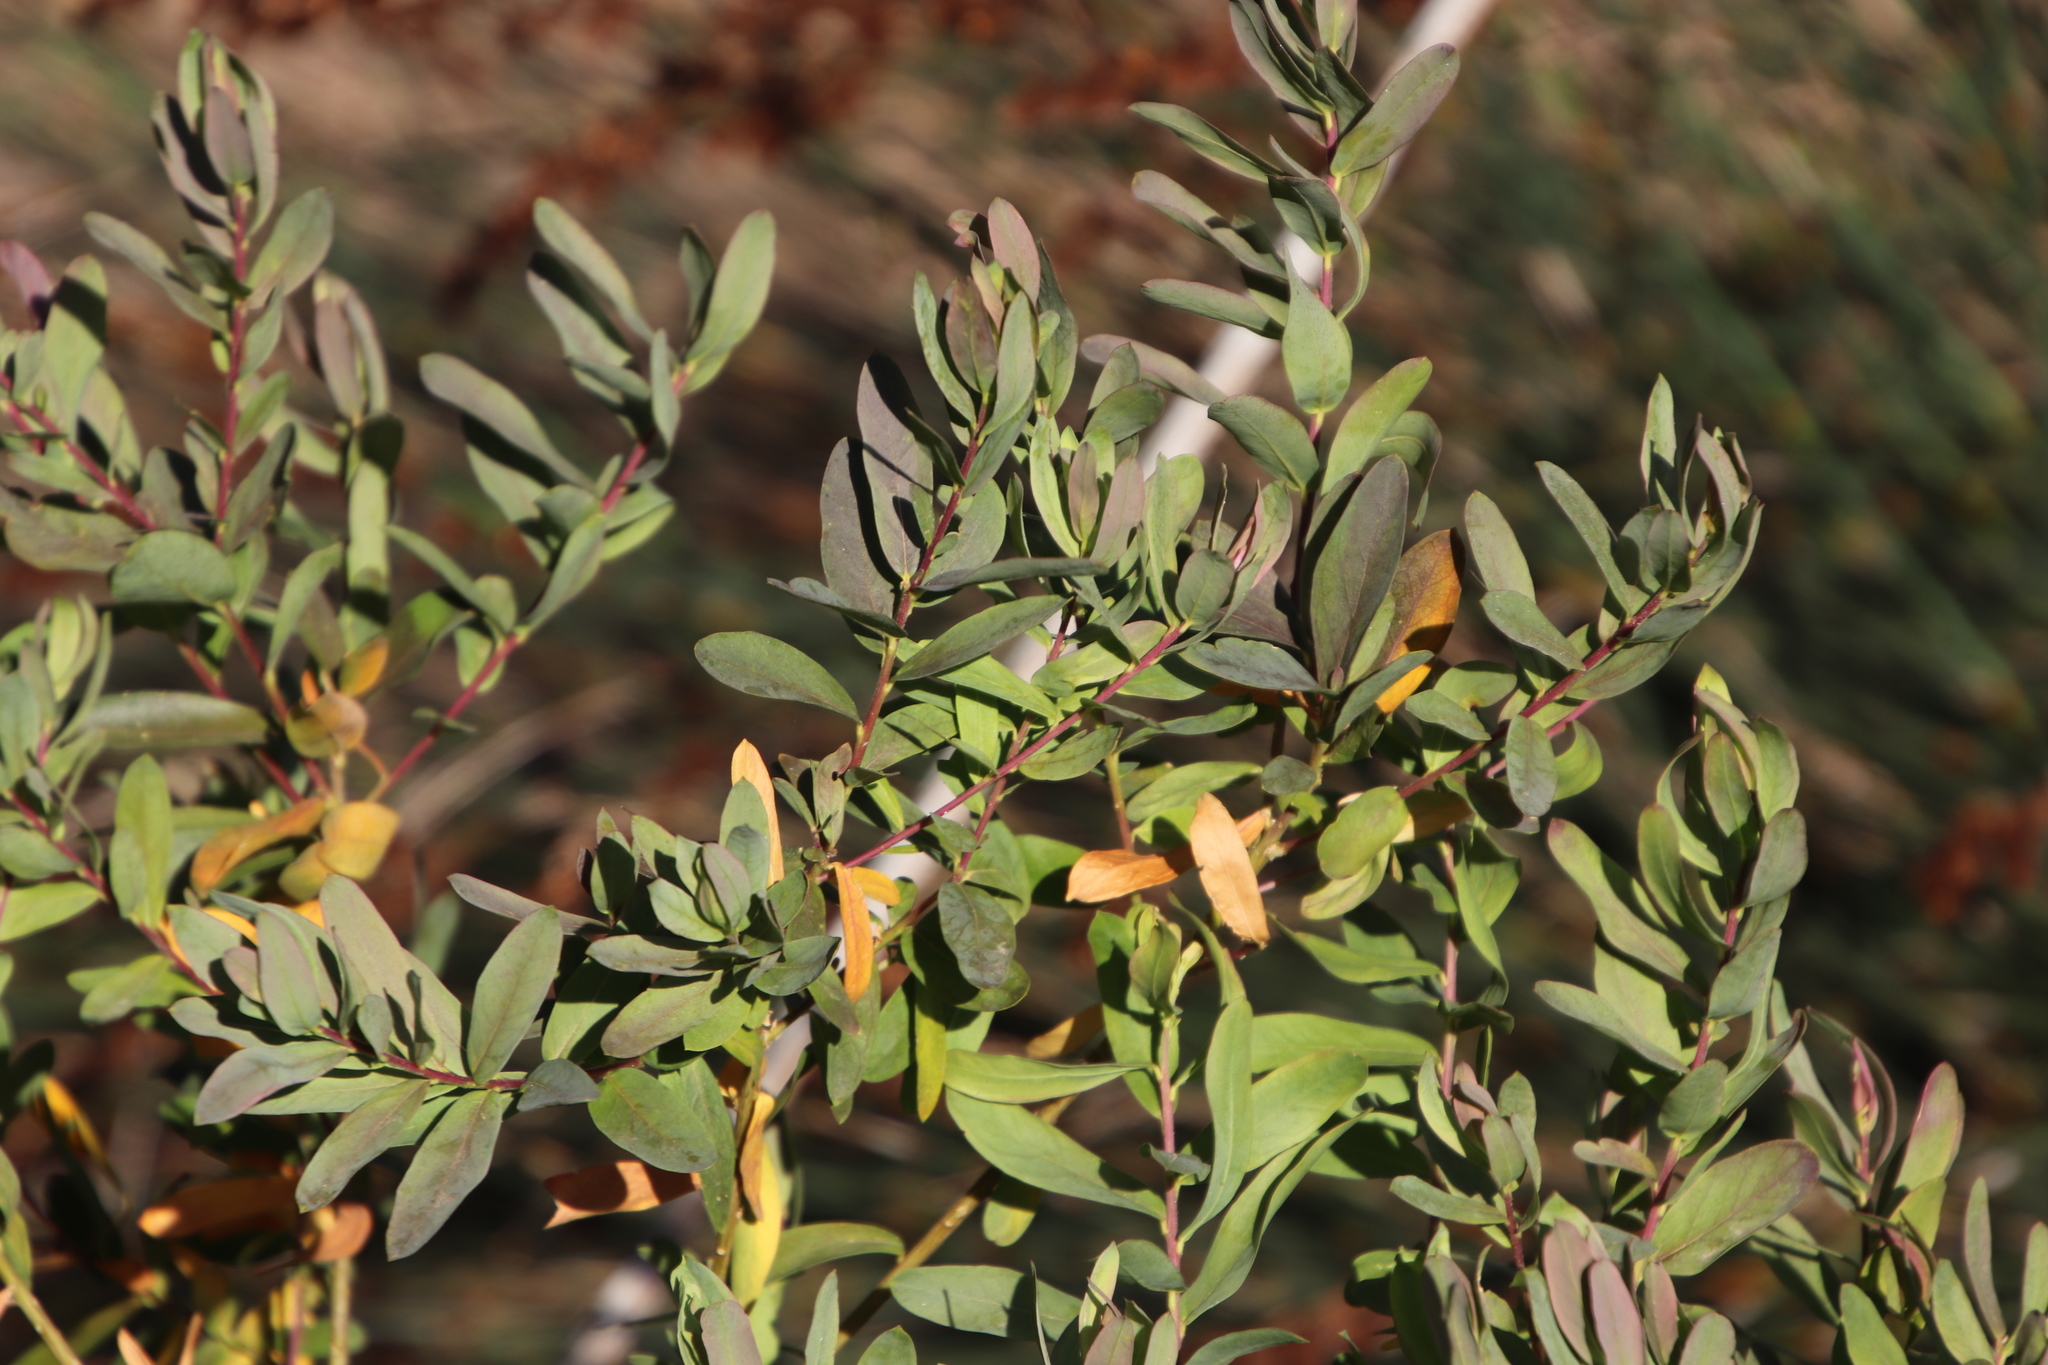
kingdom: Plantae
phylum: Tracheophyta
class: Magnoliopsida
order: Fabales
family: Polygalaceae
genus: Polygala
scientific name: Polygala myrtifolia
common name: Myrtle-leaf milkwort
